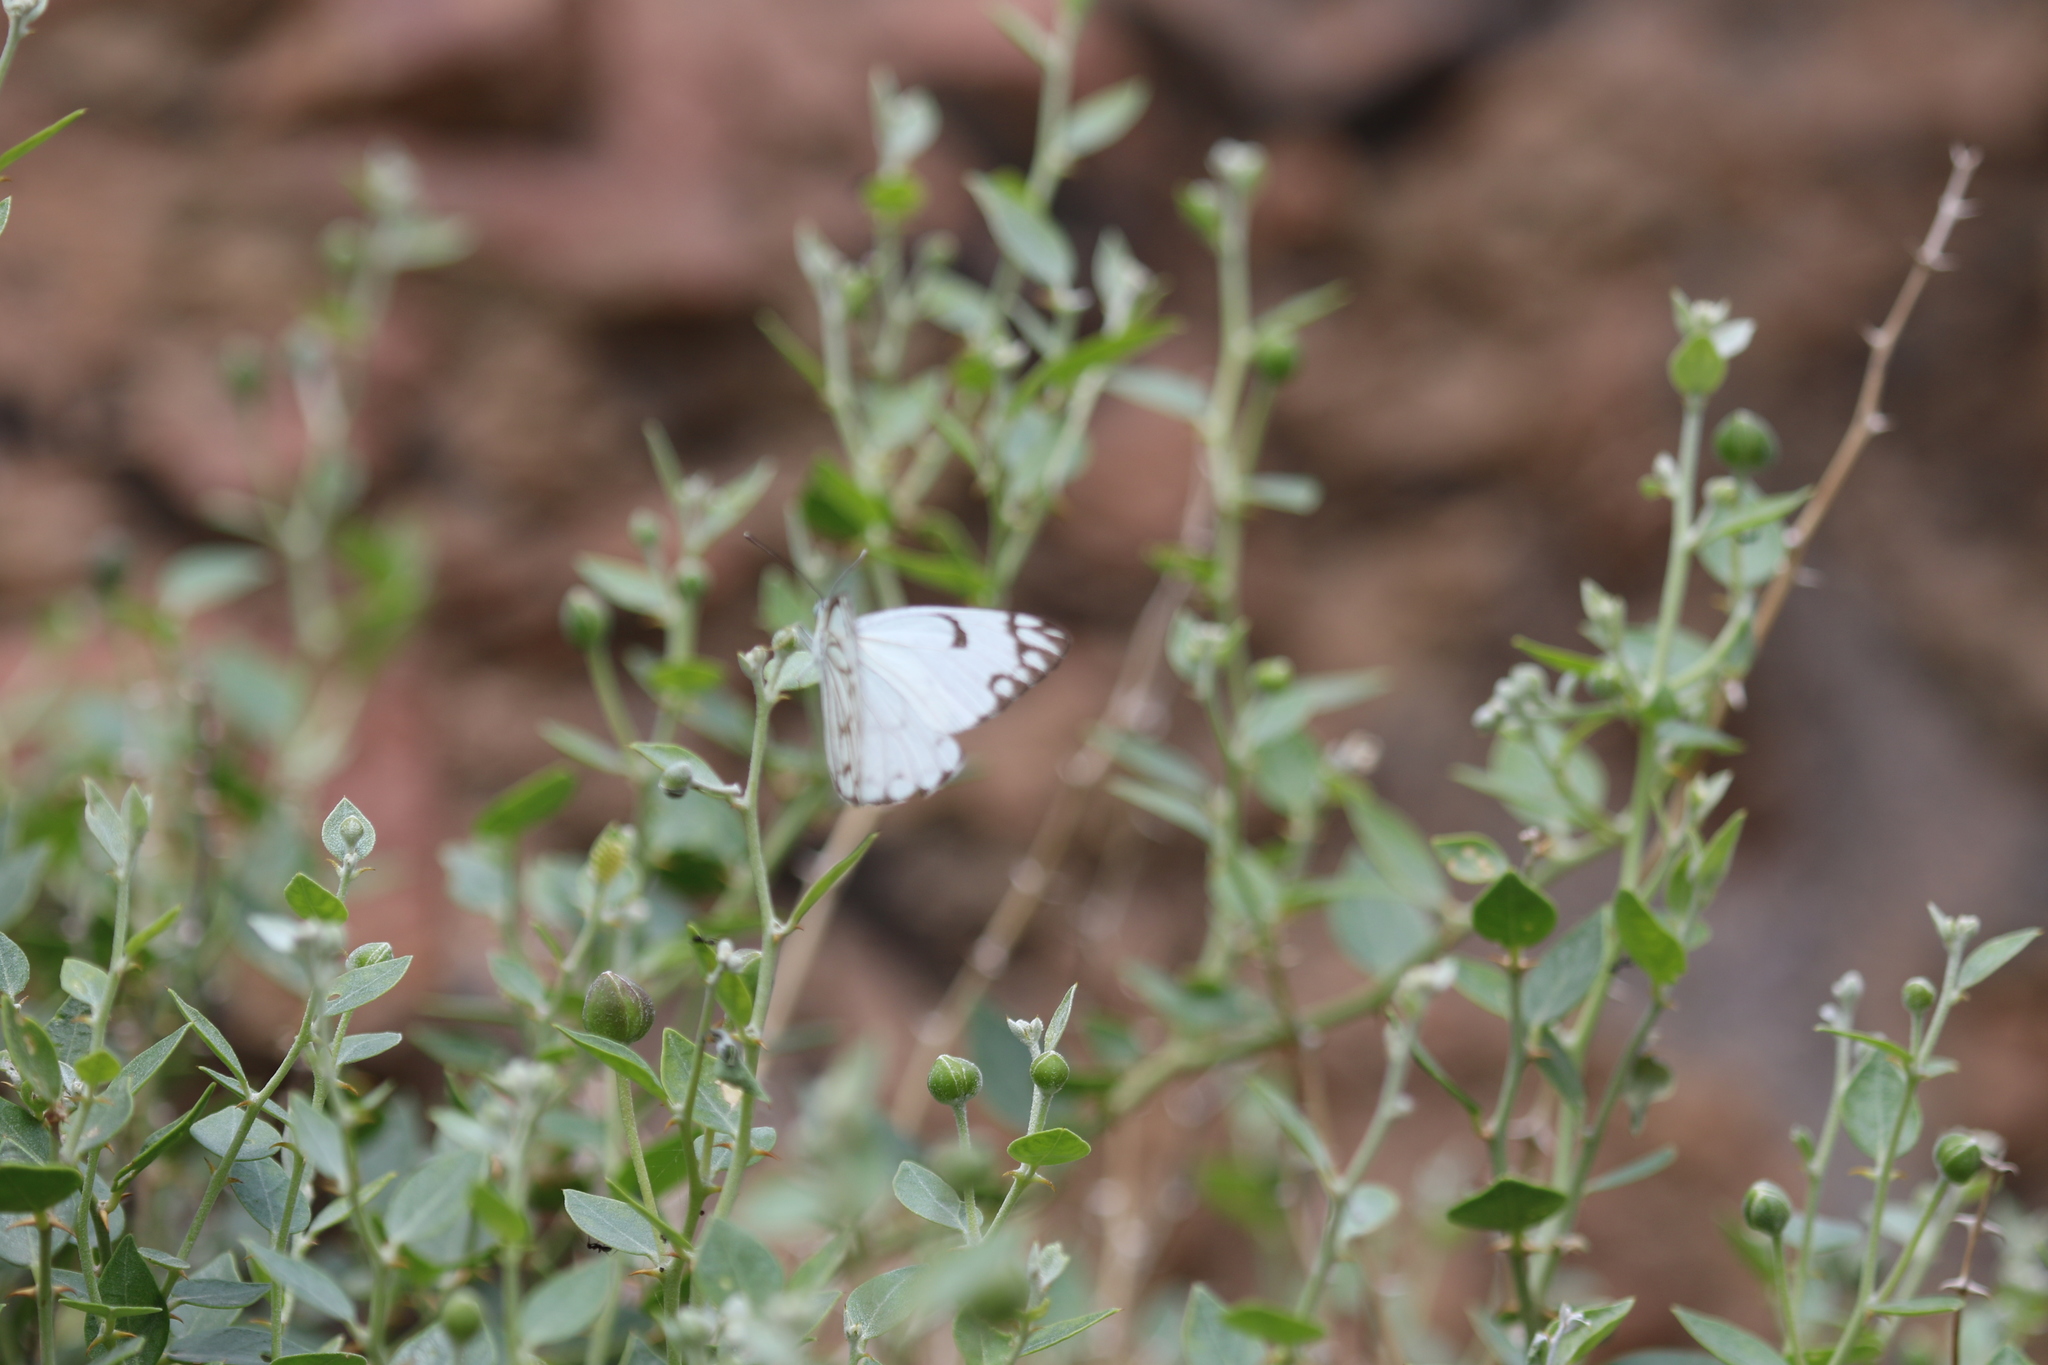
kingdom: Animalia
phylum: Arthropoda
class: Insecta
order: Lepidoptera
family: Pieridae
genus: Belenois
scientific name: Belenois aurota
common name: Brown-veined white
